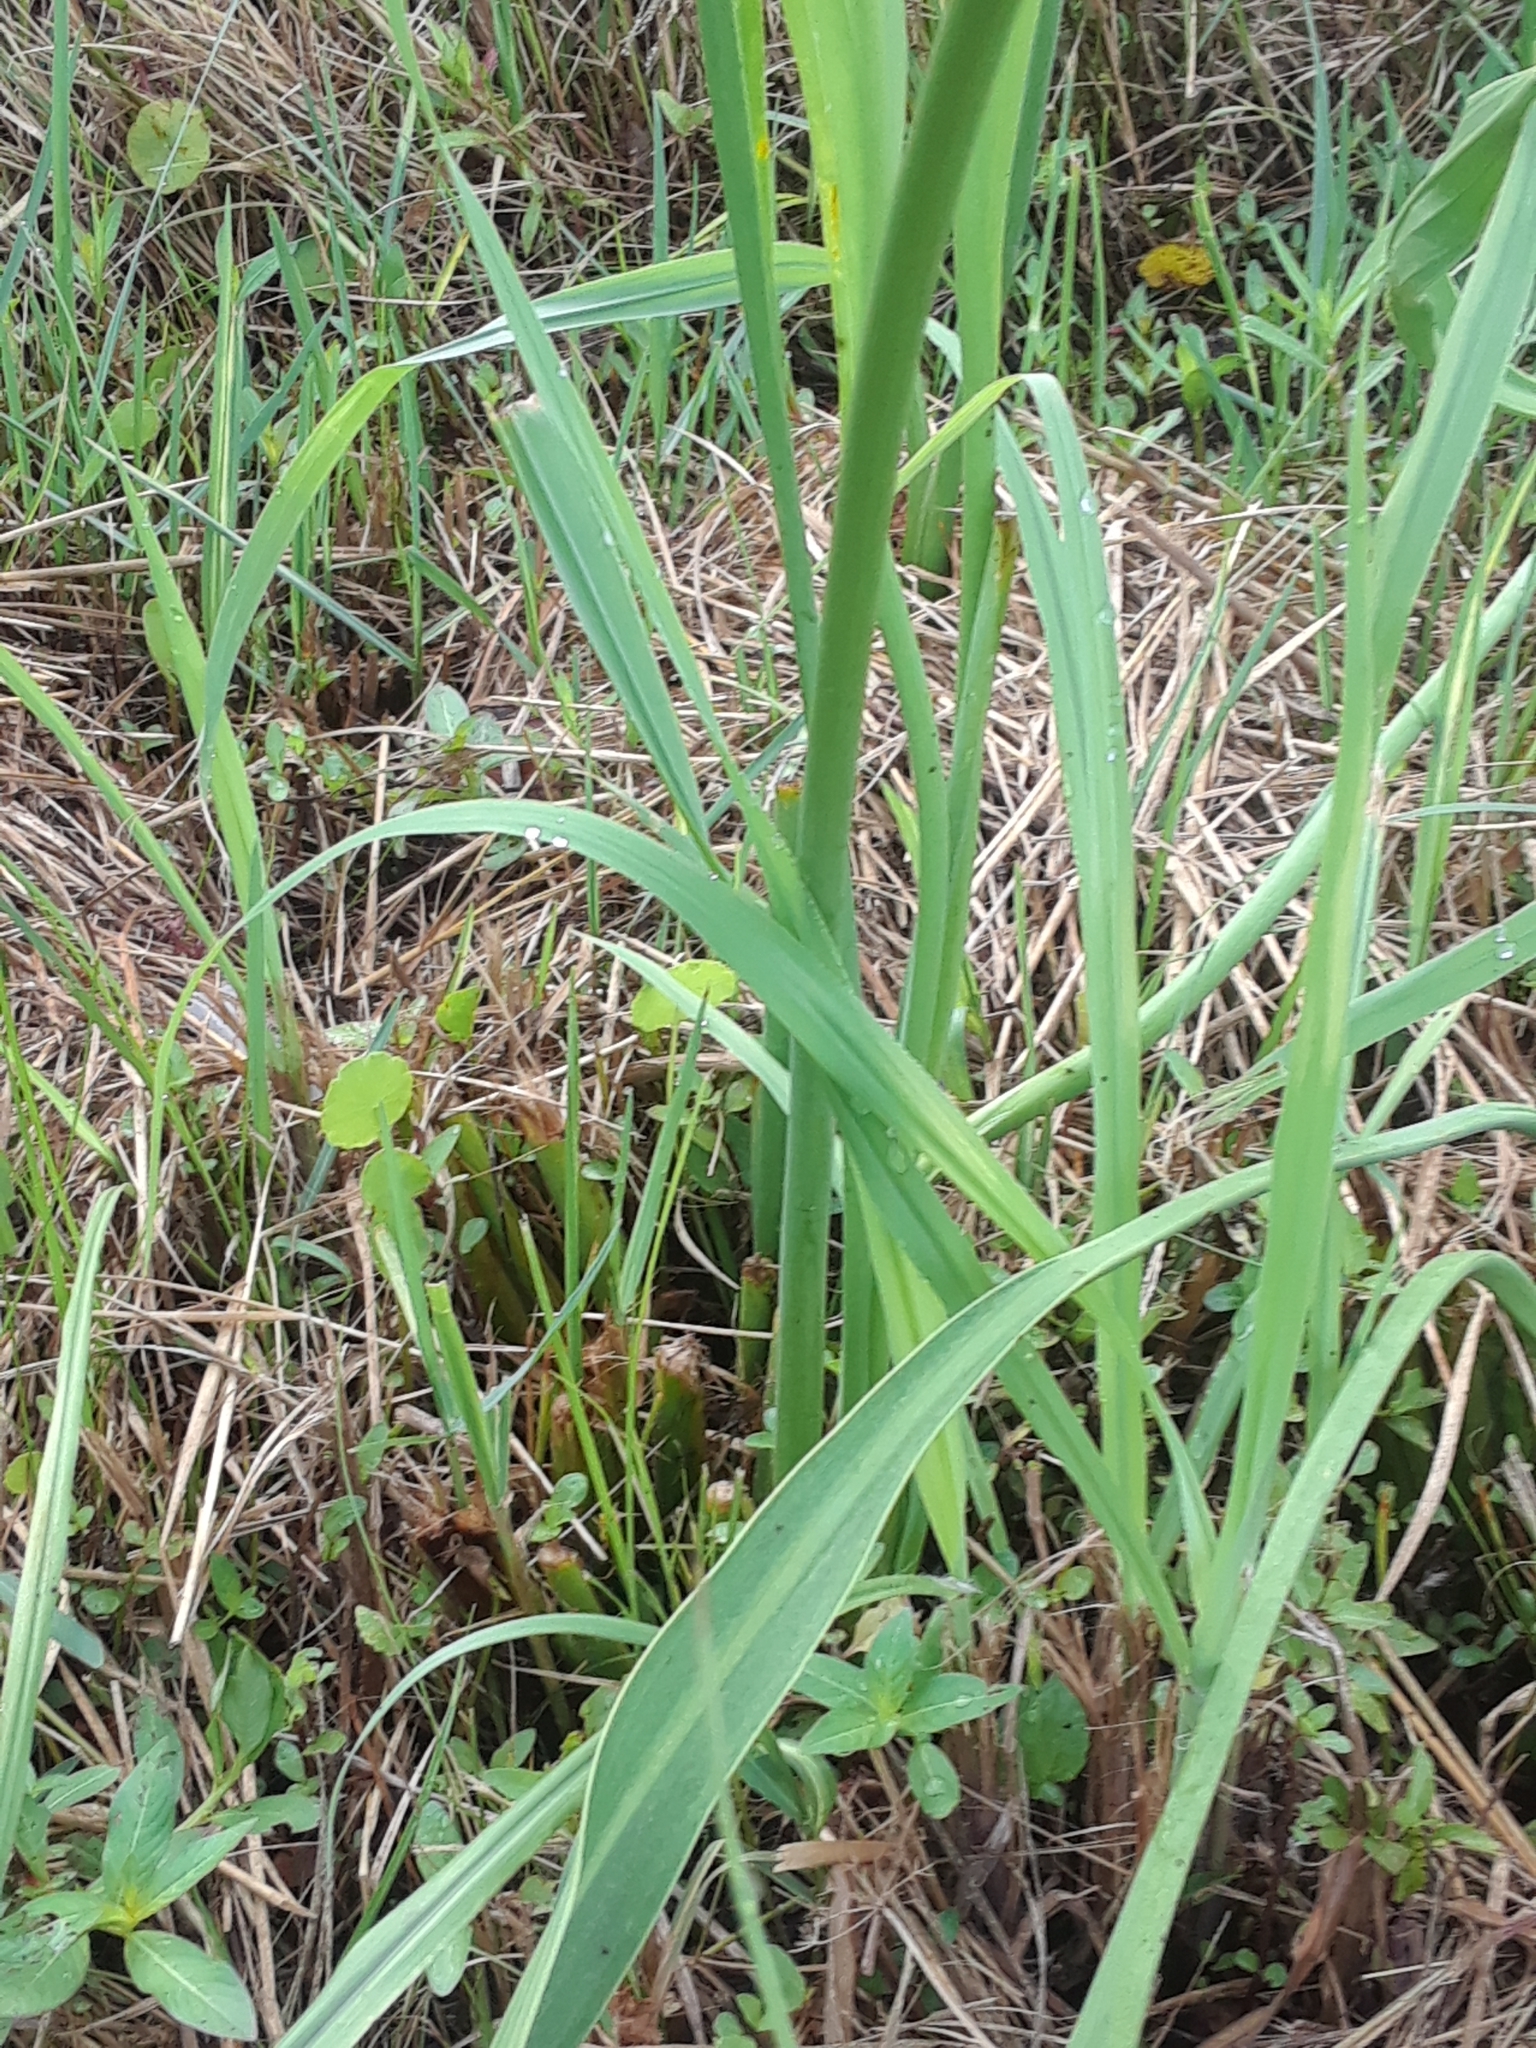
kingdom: Plantae
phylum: Tracheophyta
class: Liliopsida
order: Alismatales
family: Alismataceae
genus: Sagittaria
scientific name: Sagittaria lancifolia
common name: Lance-leaf arrowhead
